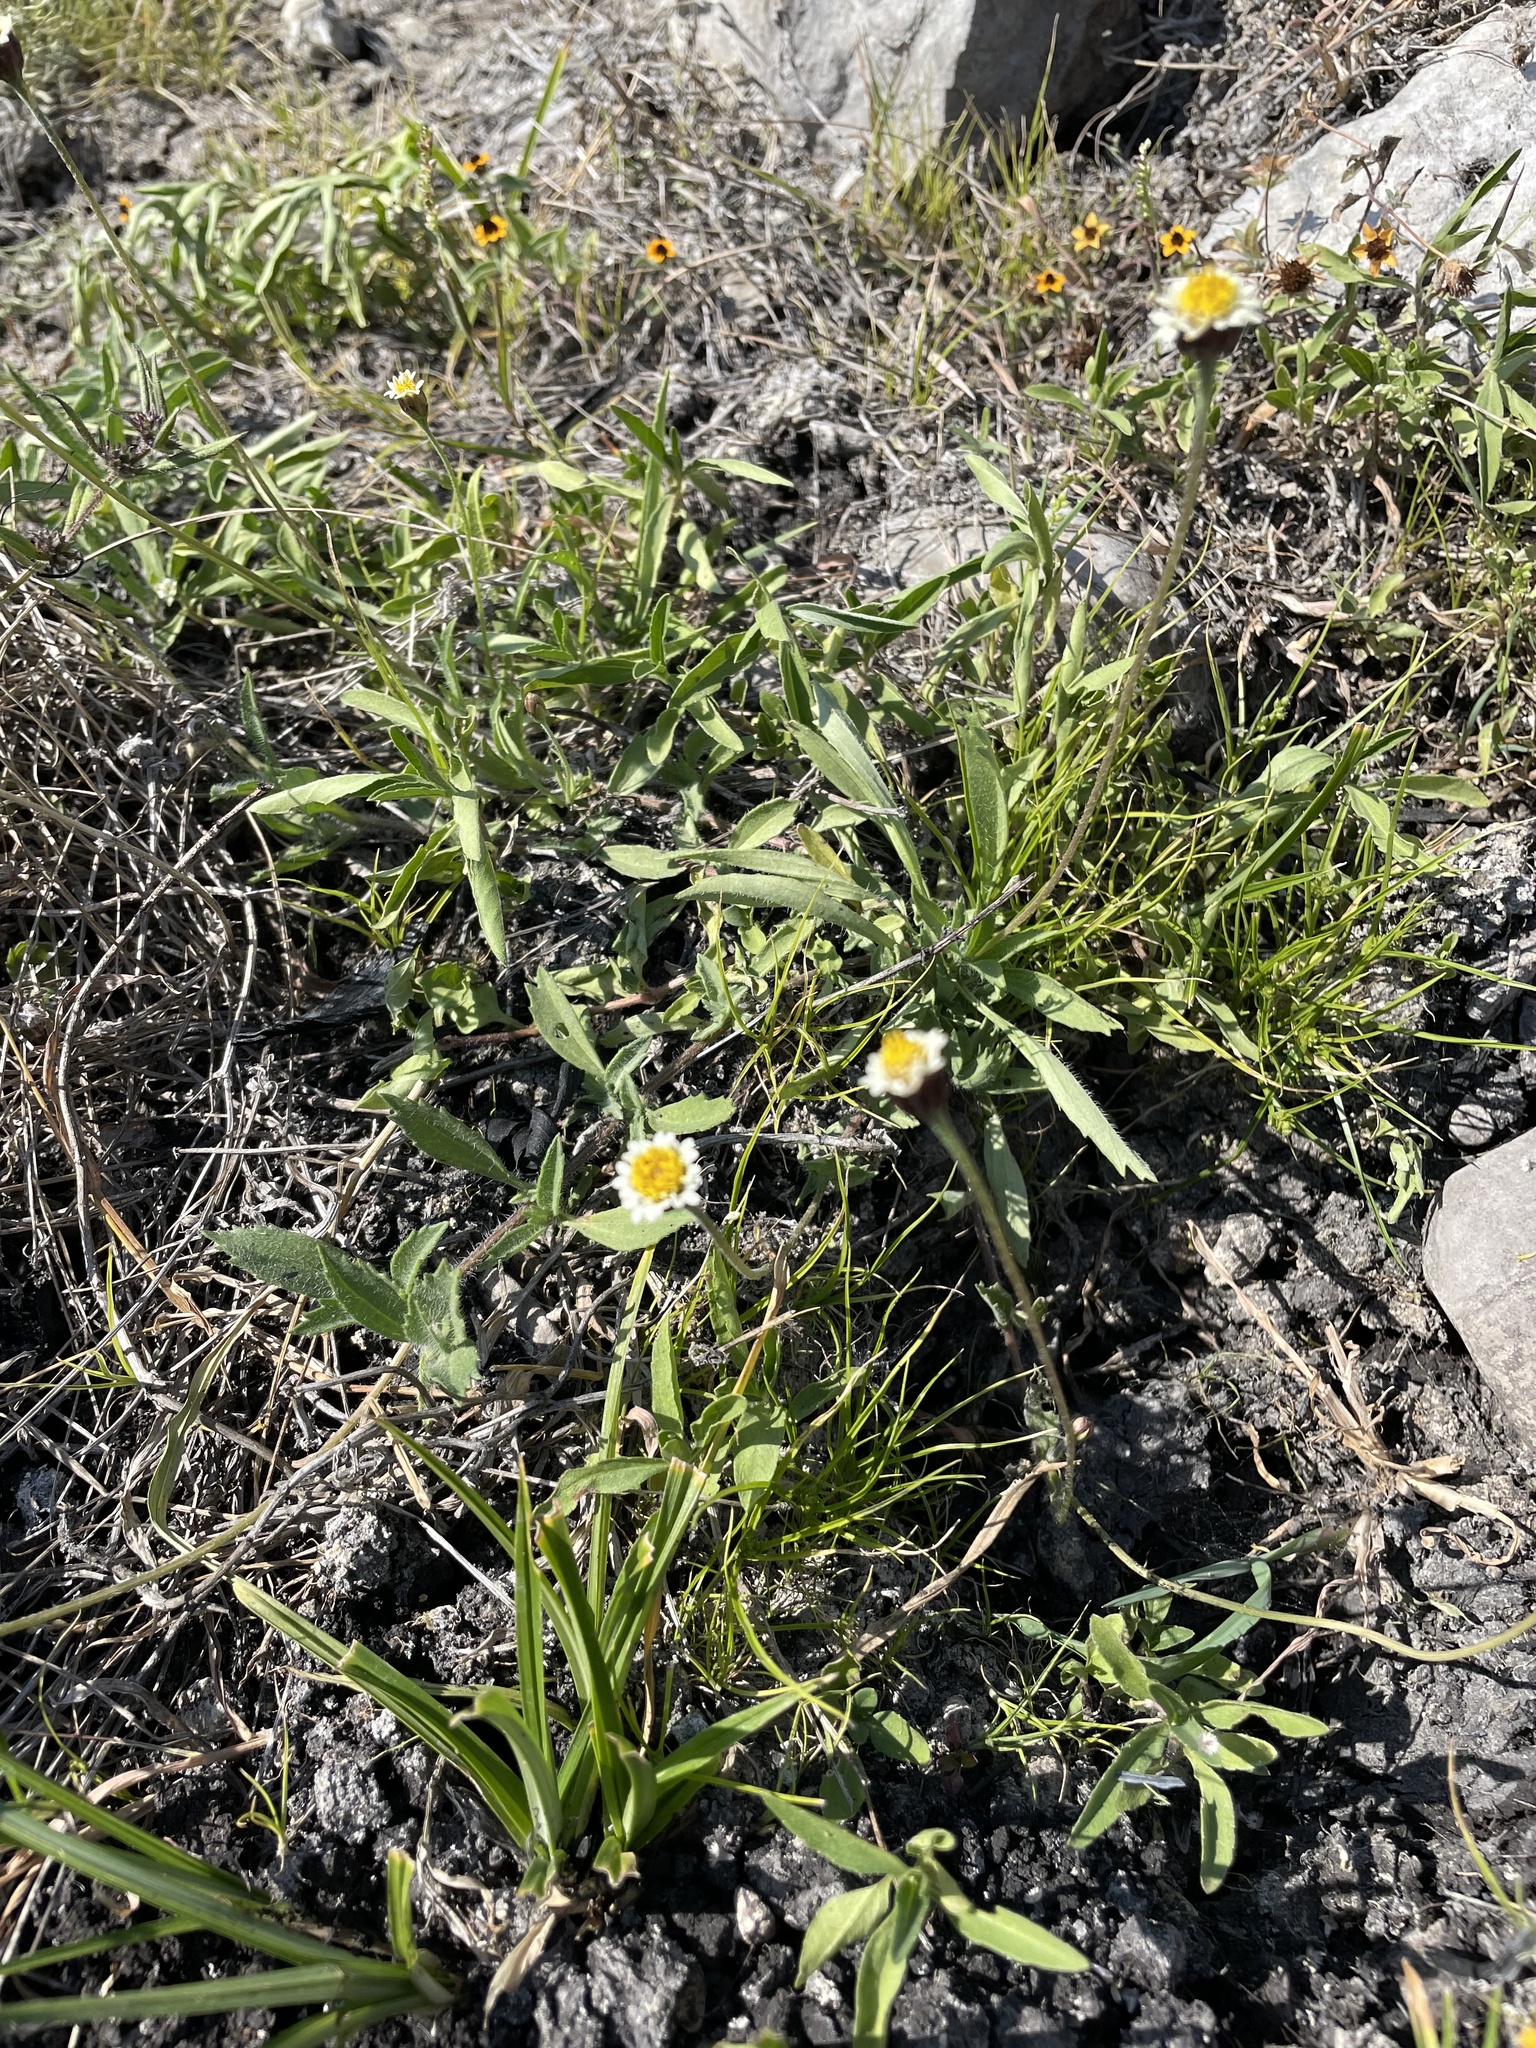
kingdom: Plantae
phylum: Tracheophyta
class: Magnoliopsida
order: Asterales
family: Asteraceae
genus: Tridax
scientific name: Tridax coronopifolia
